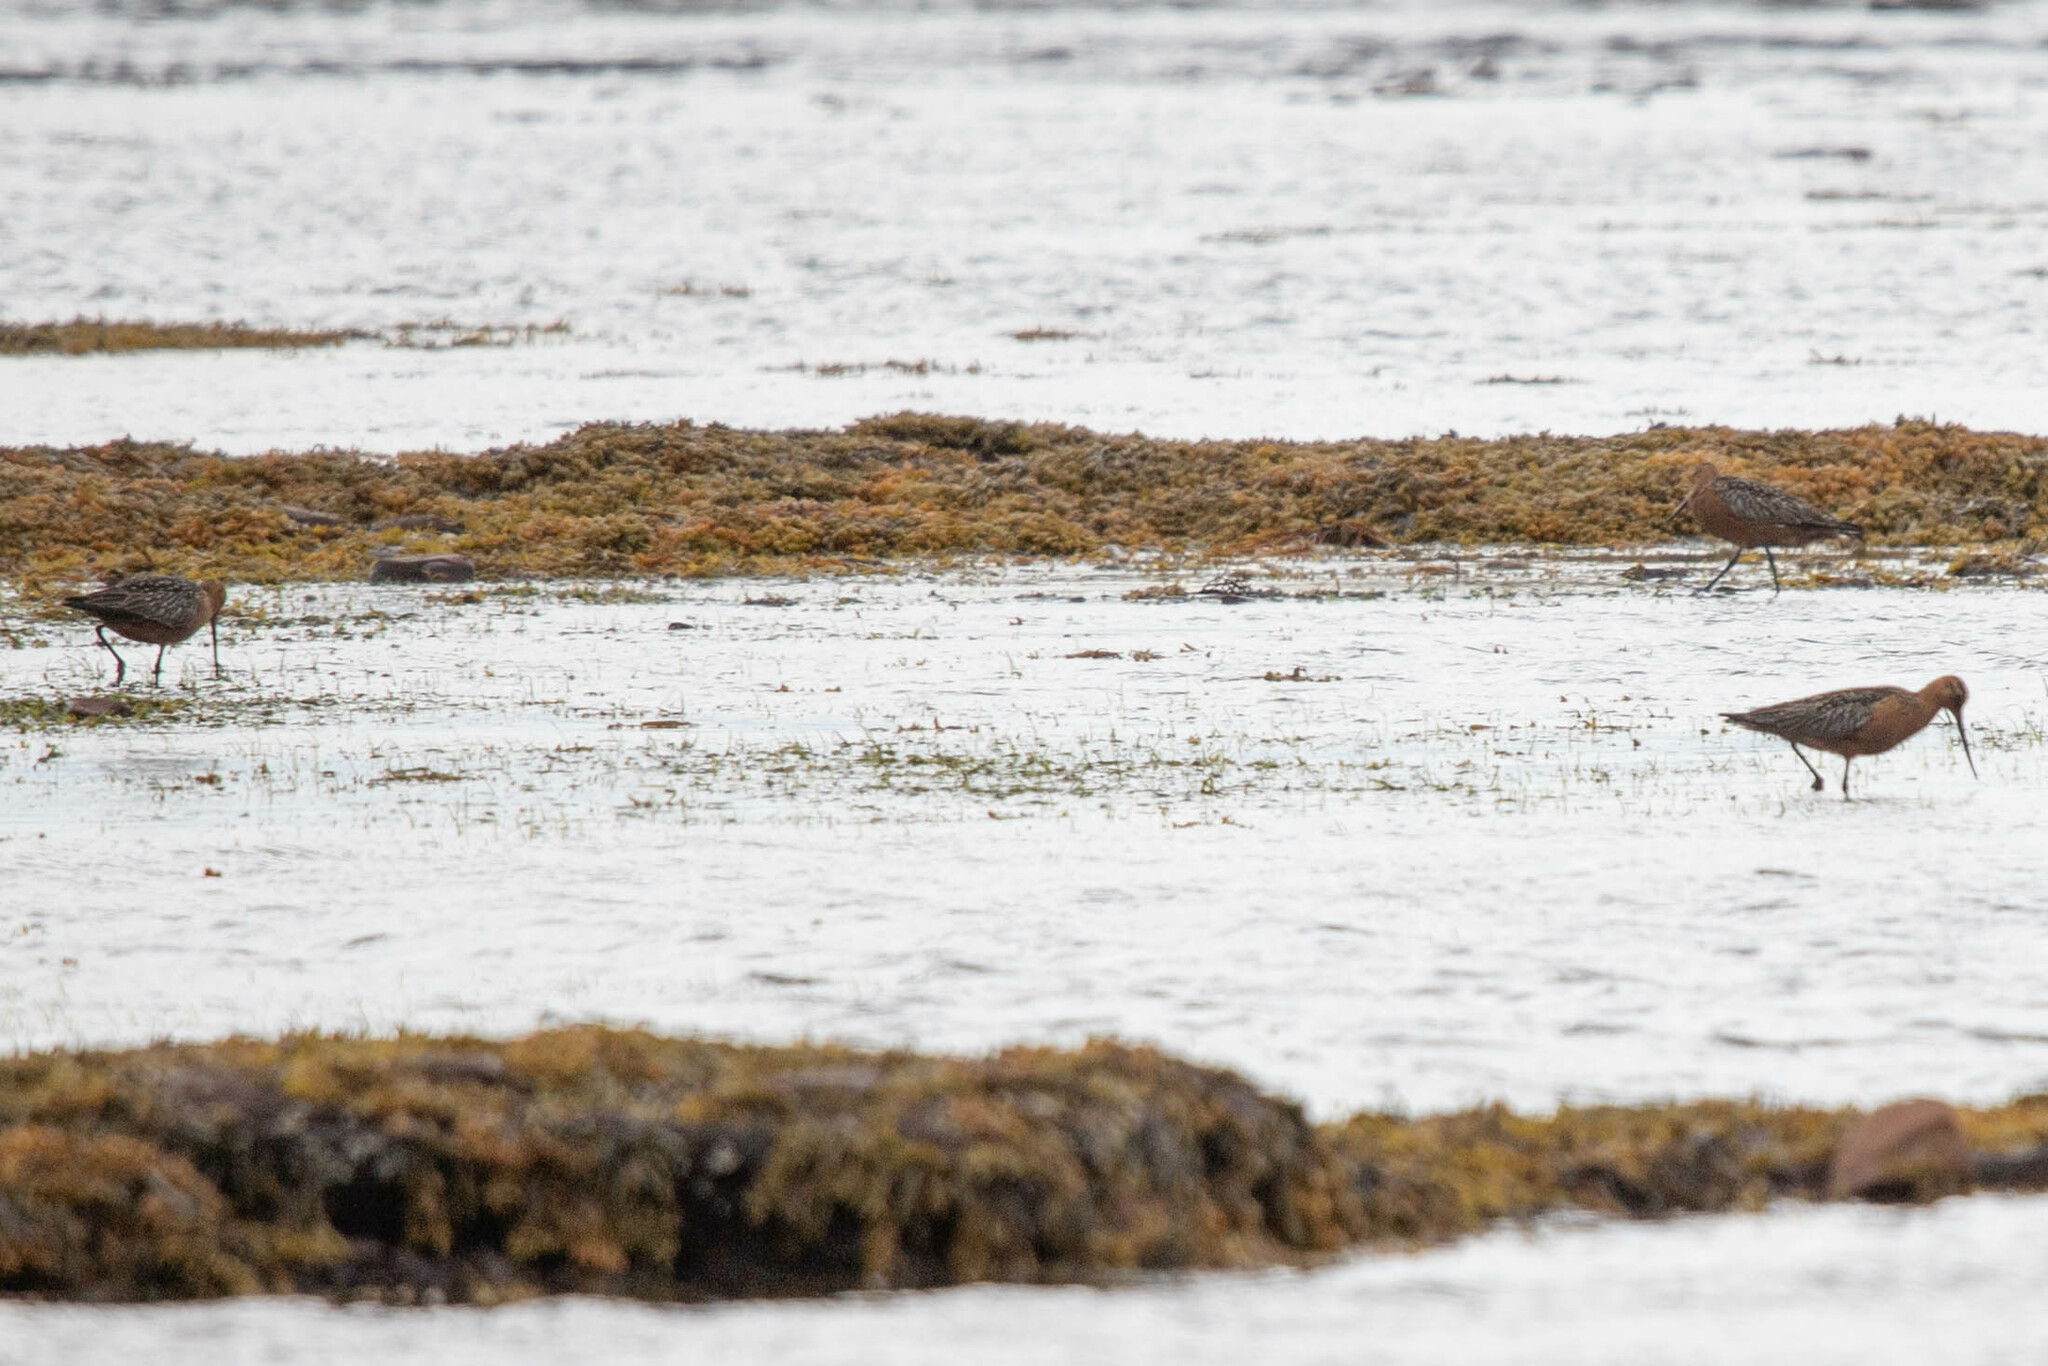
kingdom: Animalia
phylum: Chordata
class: Aves
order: Charadriiformes
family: Scolopacidae
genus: Limosa
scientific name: Limosa lapponica
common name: Bar-tailed godwit
